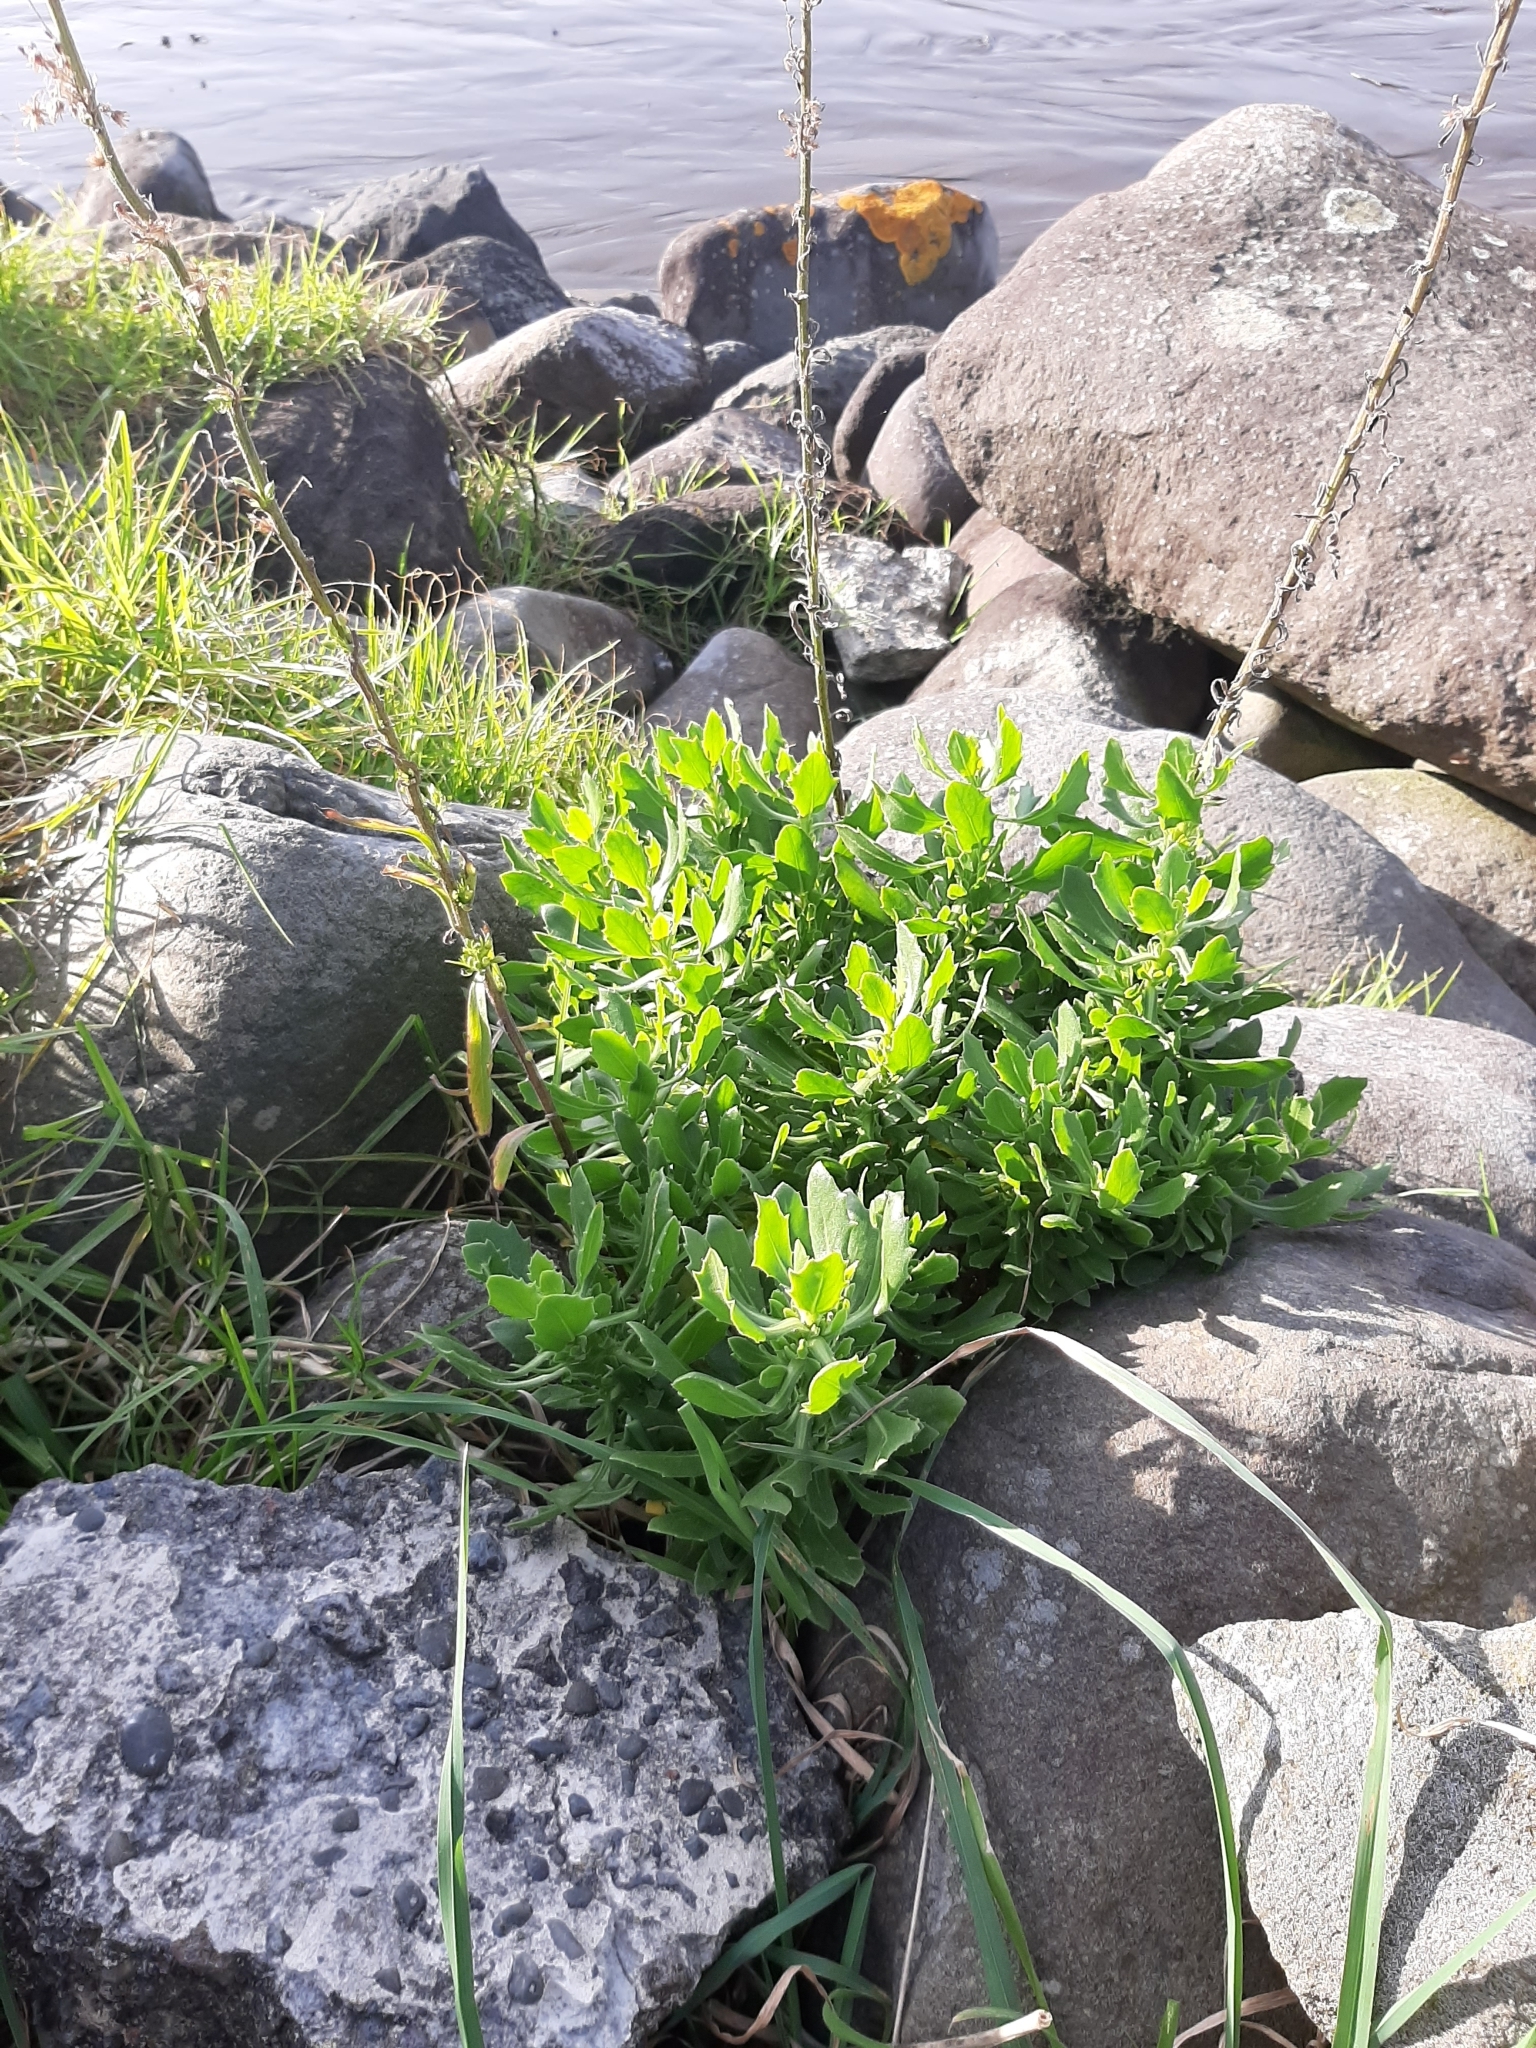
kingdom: Plantae
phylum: Tracheophyta
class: Magnoliopsida
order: Asterales
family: Asteraceae
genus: Osteospermum
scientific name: Osteospermum moniliferum
